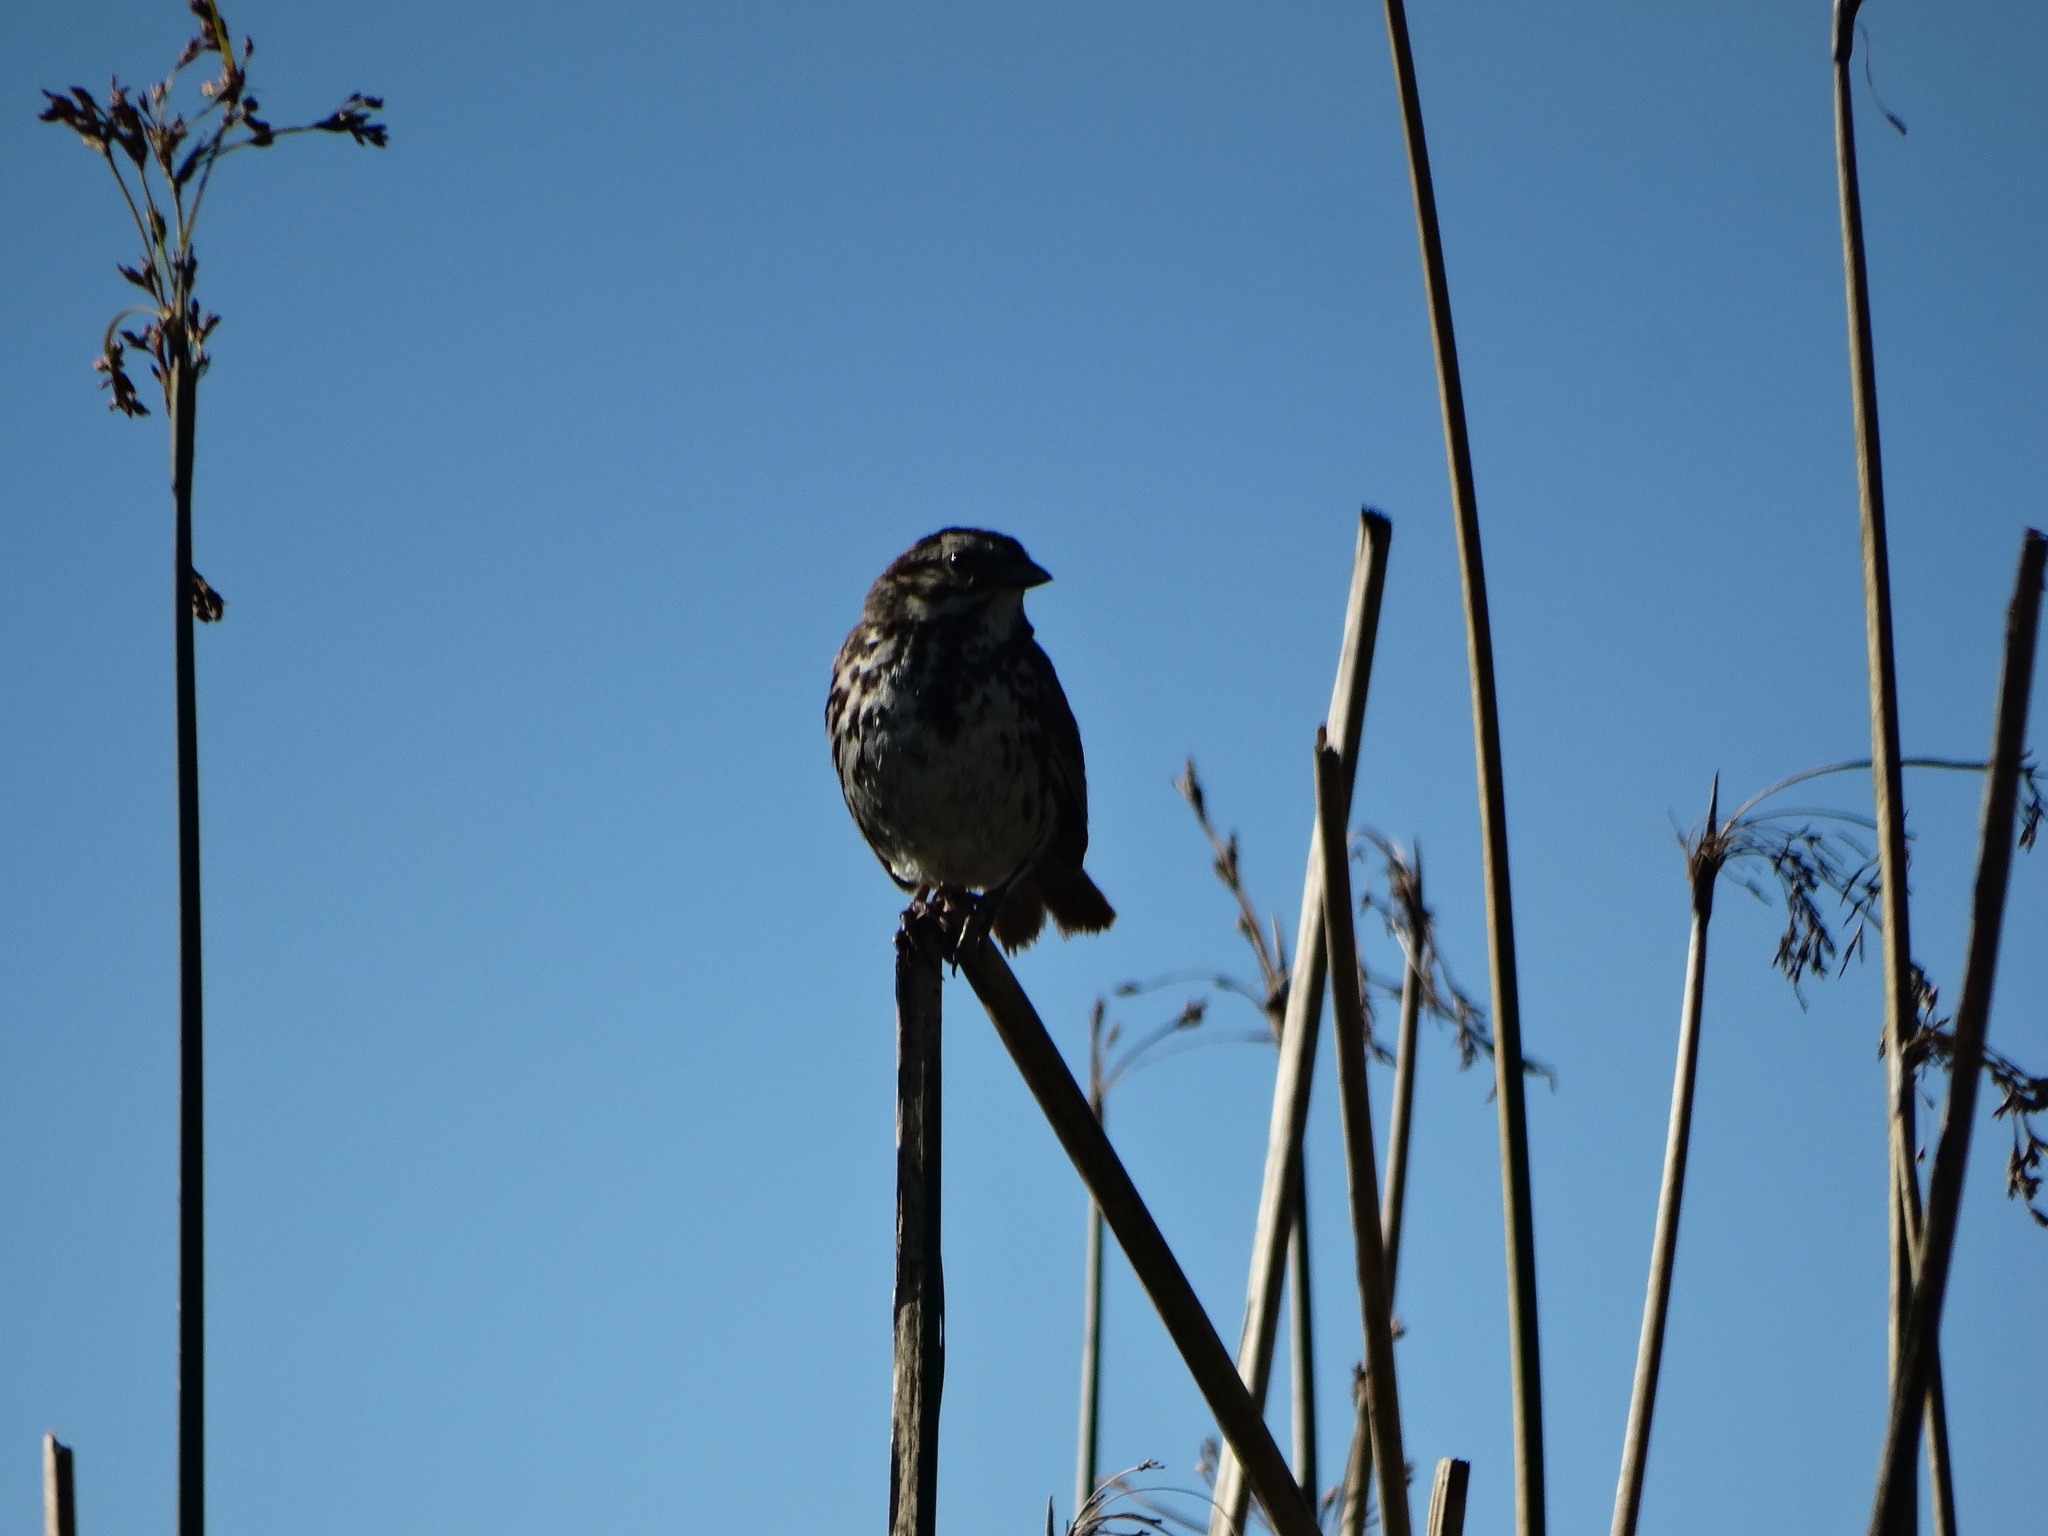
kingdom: Animalia
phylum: Chordata
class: Aves
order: Passeriformes
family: Passerellidae
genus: Melospiza
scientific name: Melospiza melodia
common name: Song sparrow
